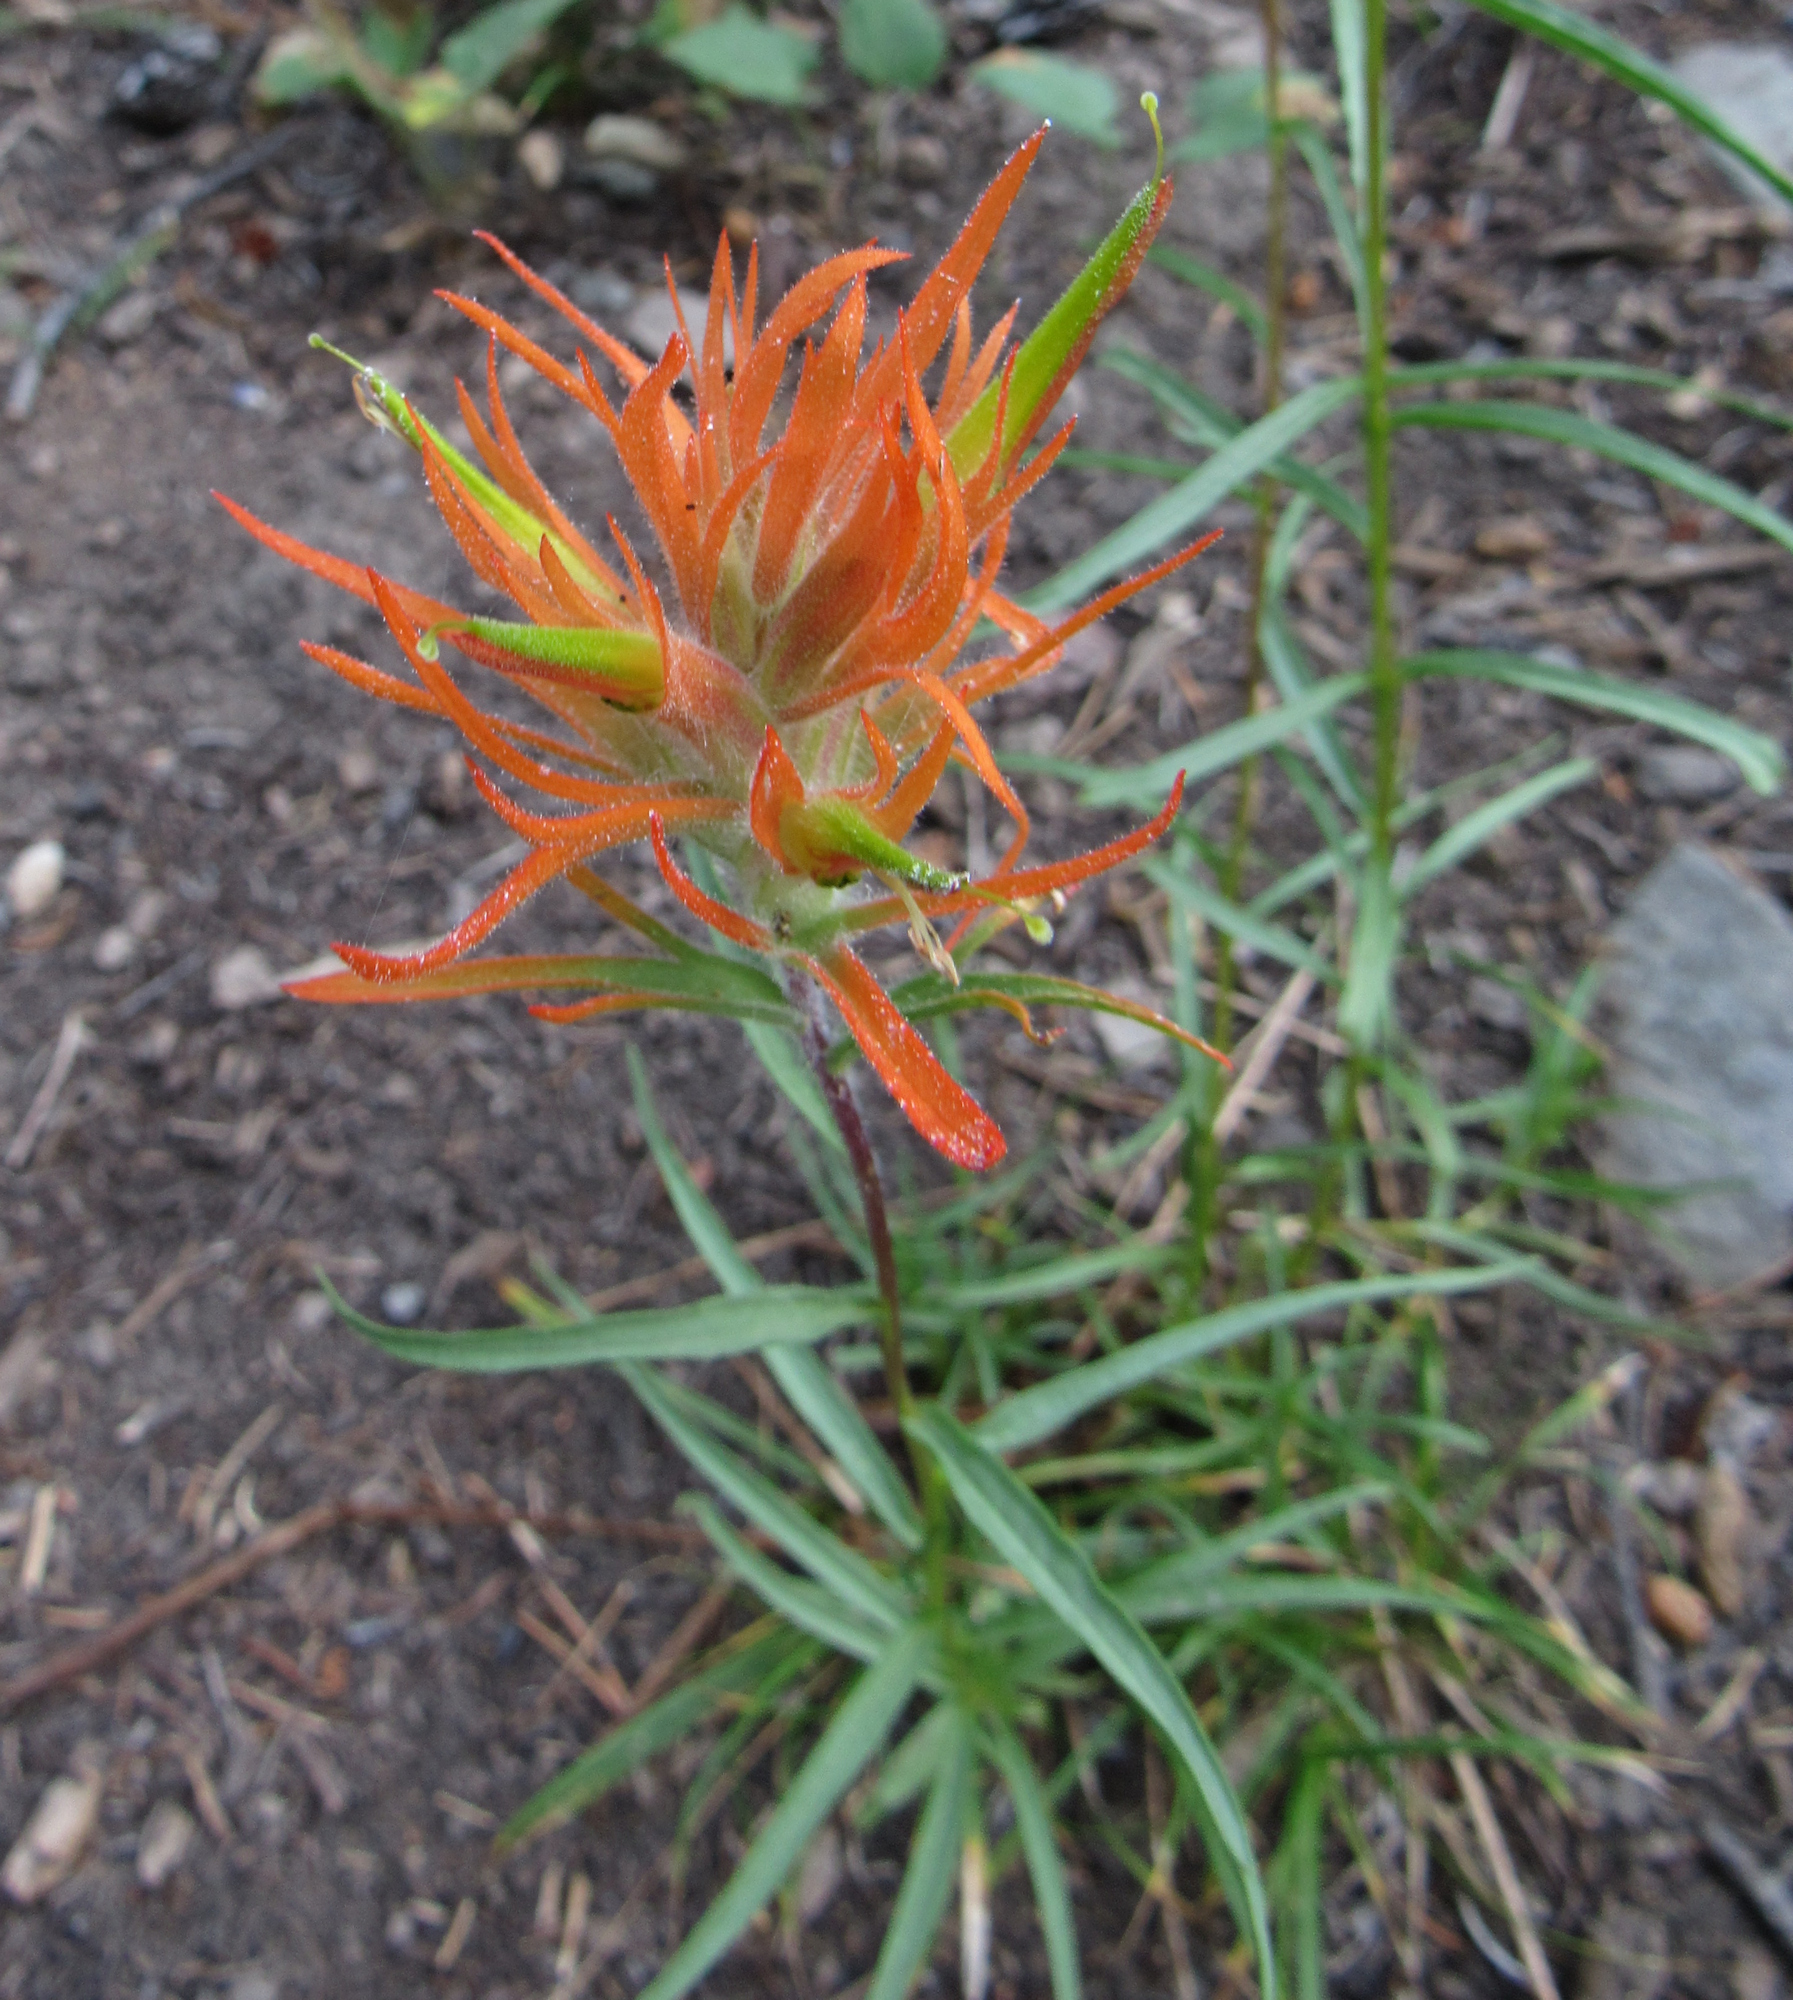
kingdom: Plantae
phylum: Tracheophyta
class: Magnoliopsida
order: Lamiales
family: Orobanchaceae
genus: Castilleja
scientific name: Castilleja miniata
